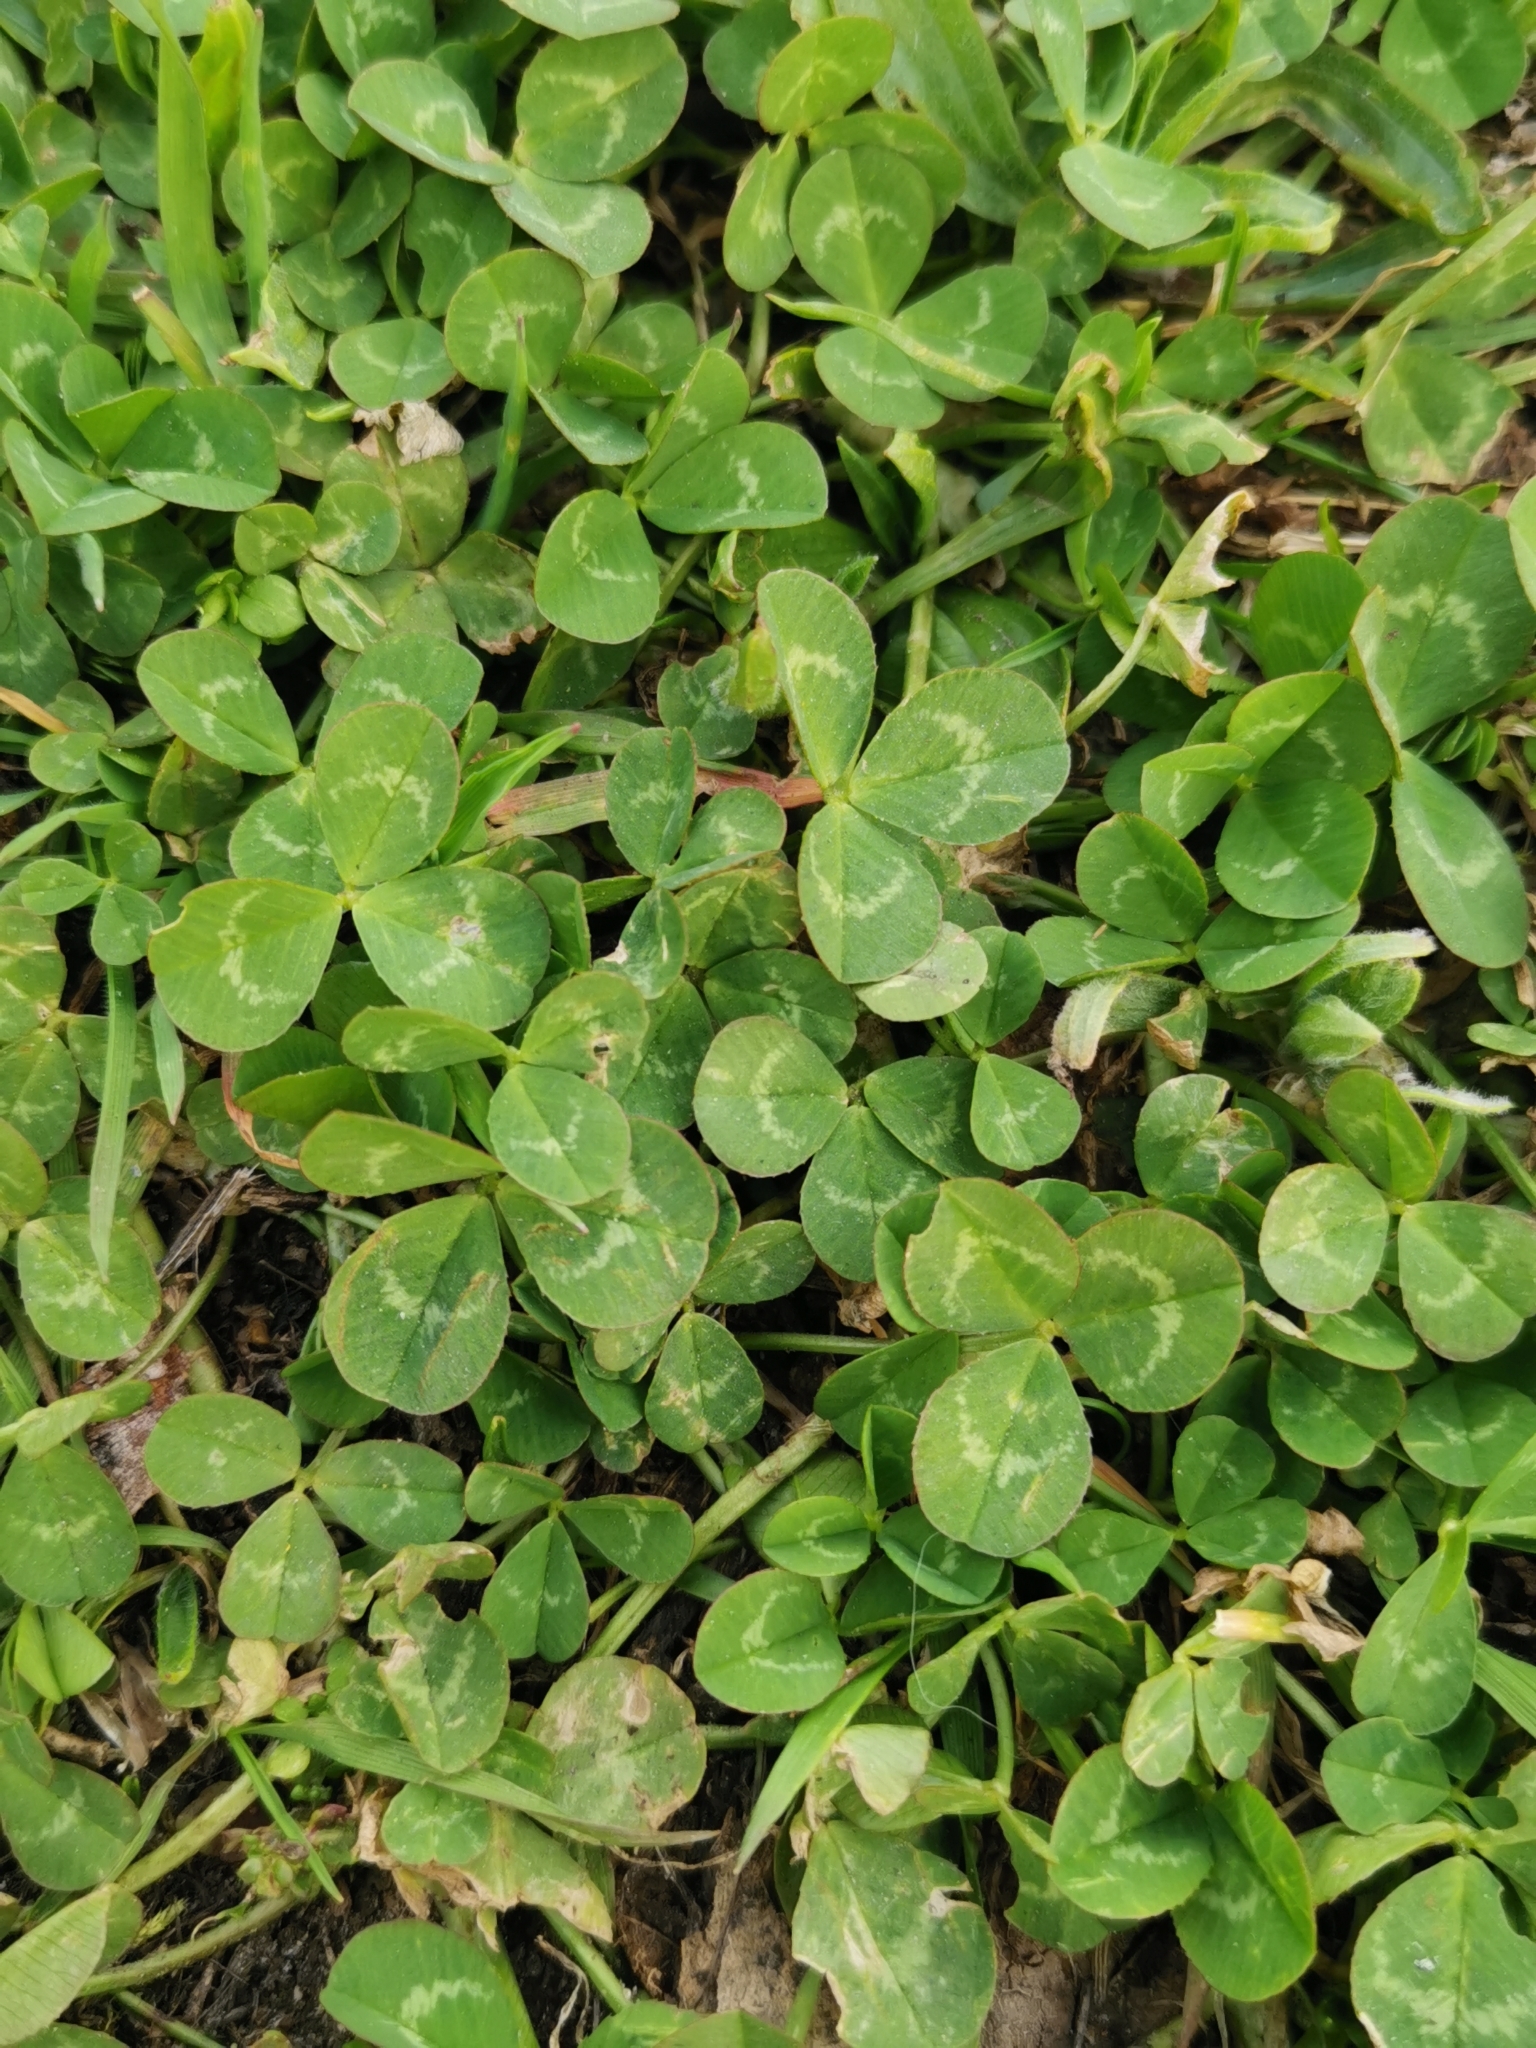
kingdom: Plantae
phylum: Tracheophyta
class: Magnoliopsida
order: Fabales
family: Fabaceae
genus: Trifolium
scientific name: Trifolium repens
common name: White clover
